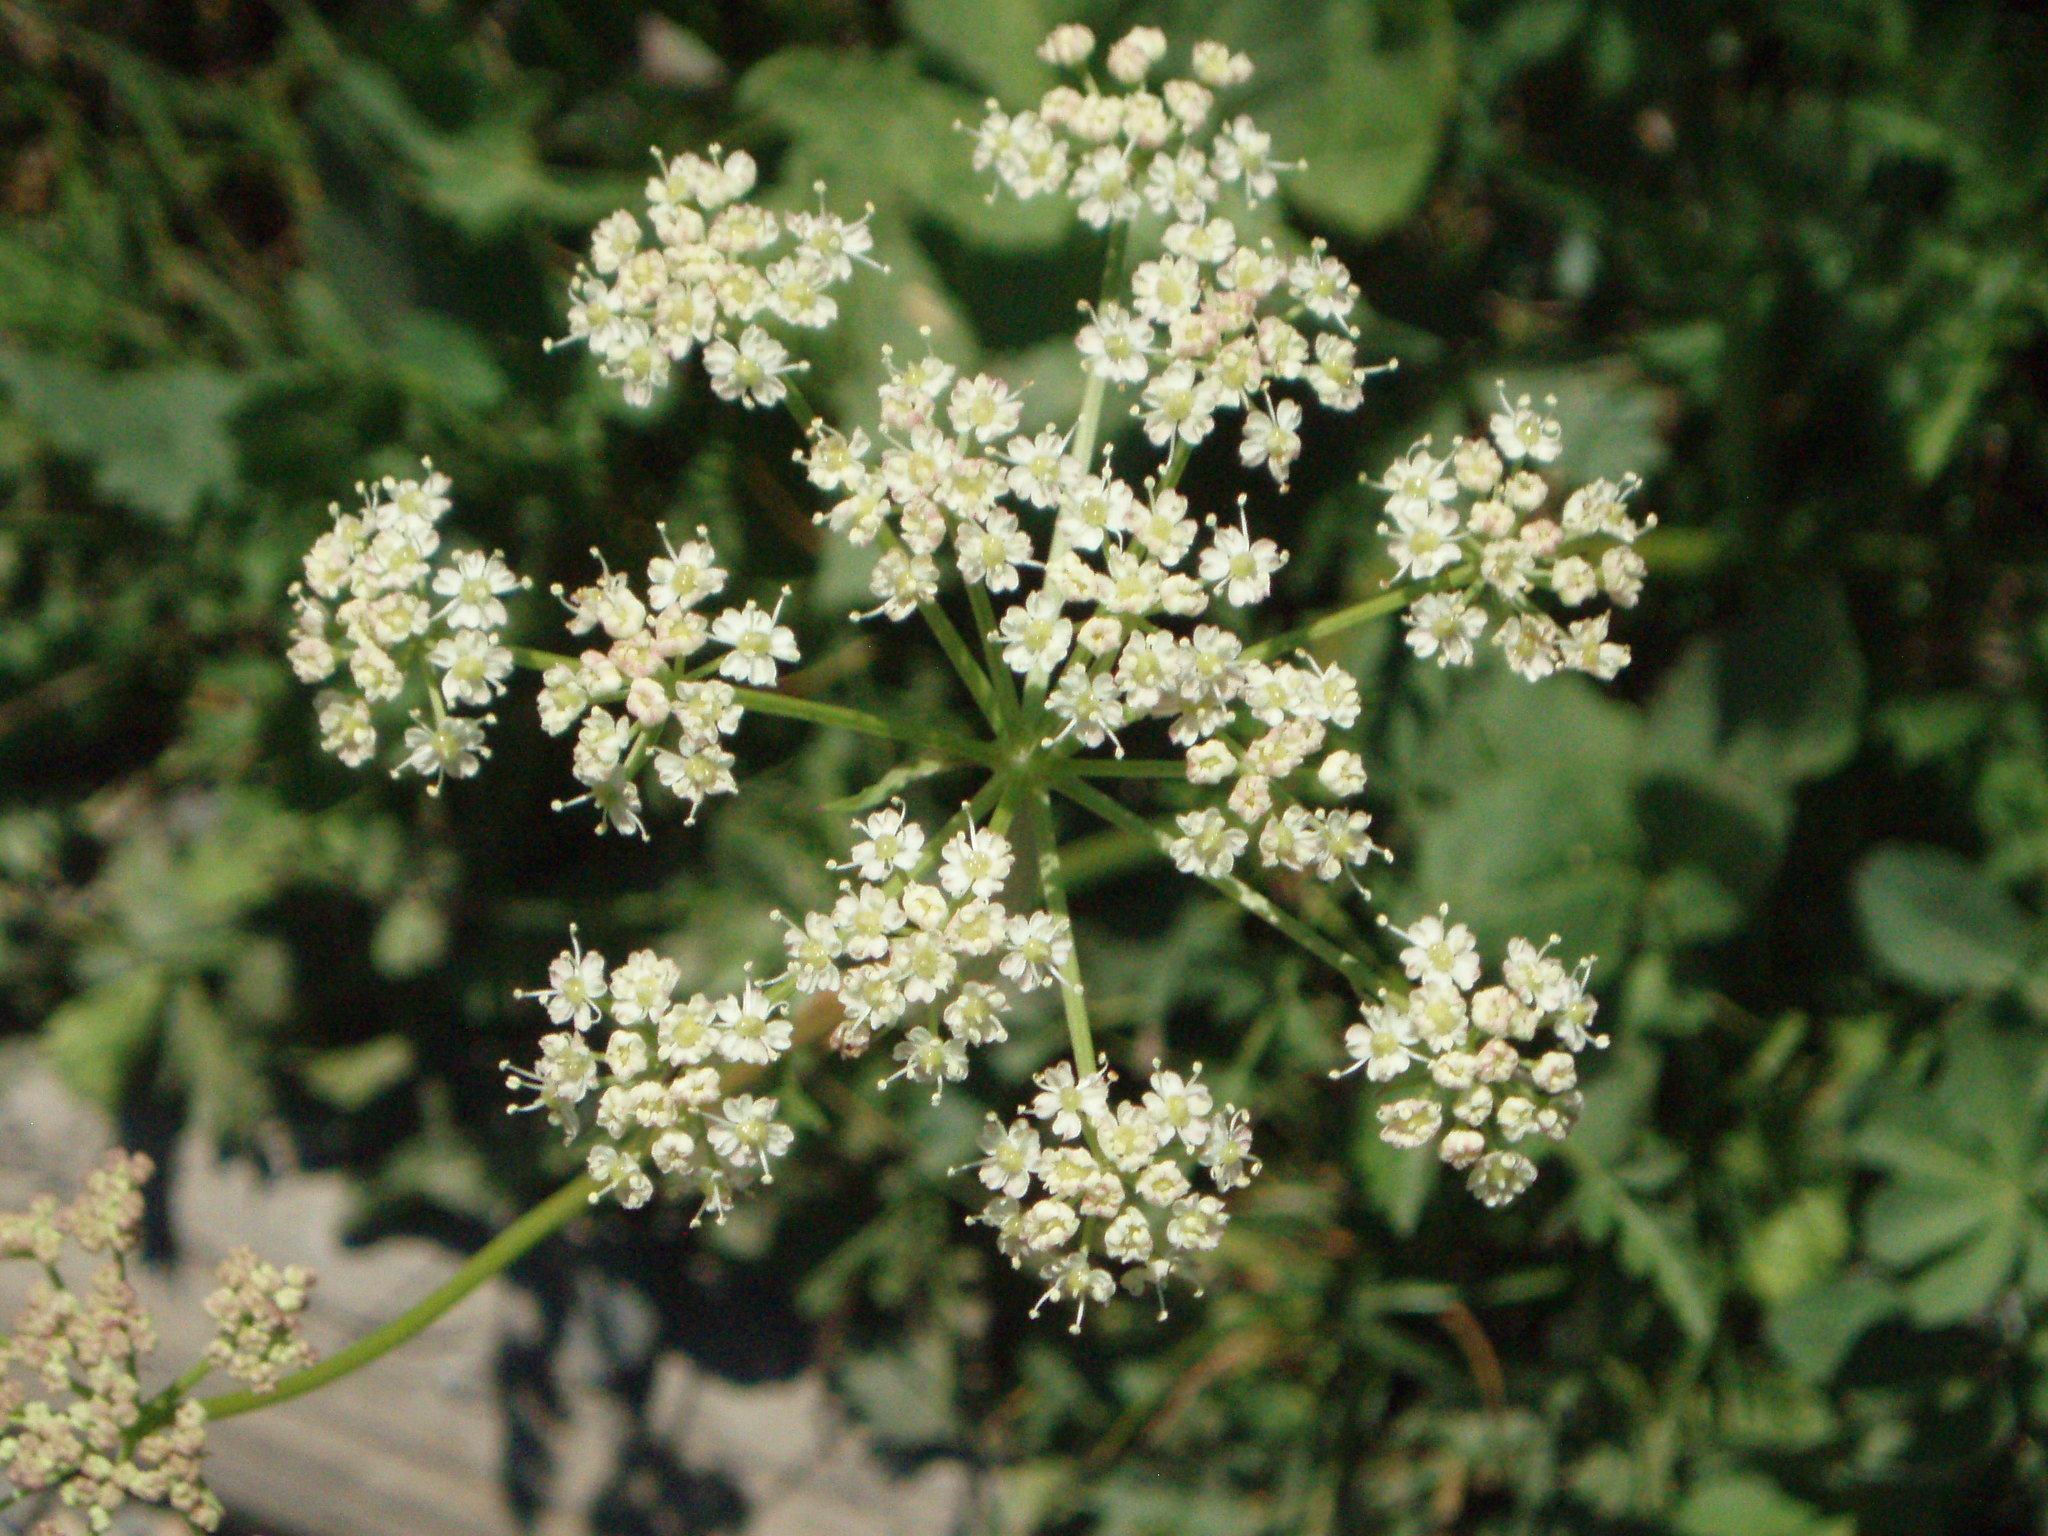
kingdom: Plantae
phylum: Tracheophyta
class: Magnoliopsida
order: Apiales
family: Apiaceae
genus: Ligusticum
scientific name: Ligusticum grayi
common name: Gray's licorice-root
